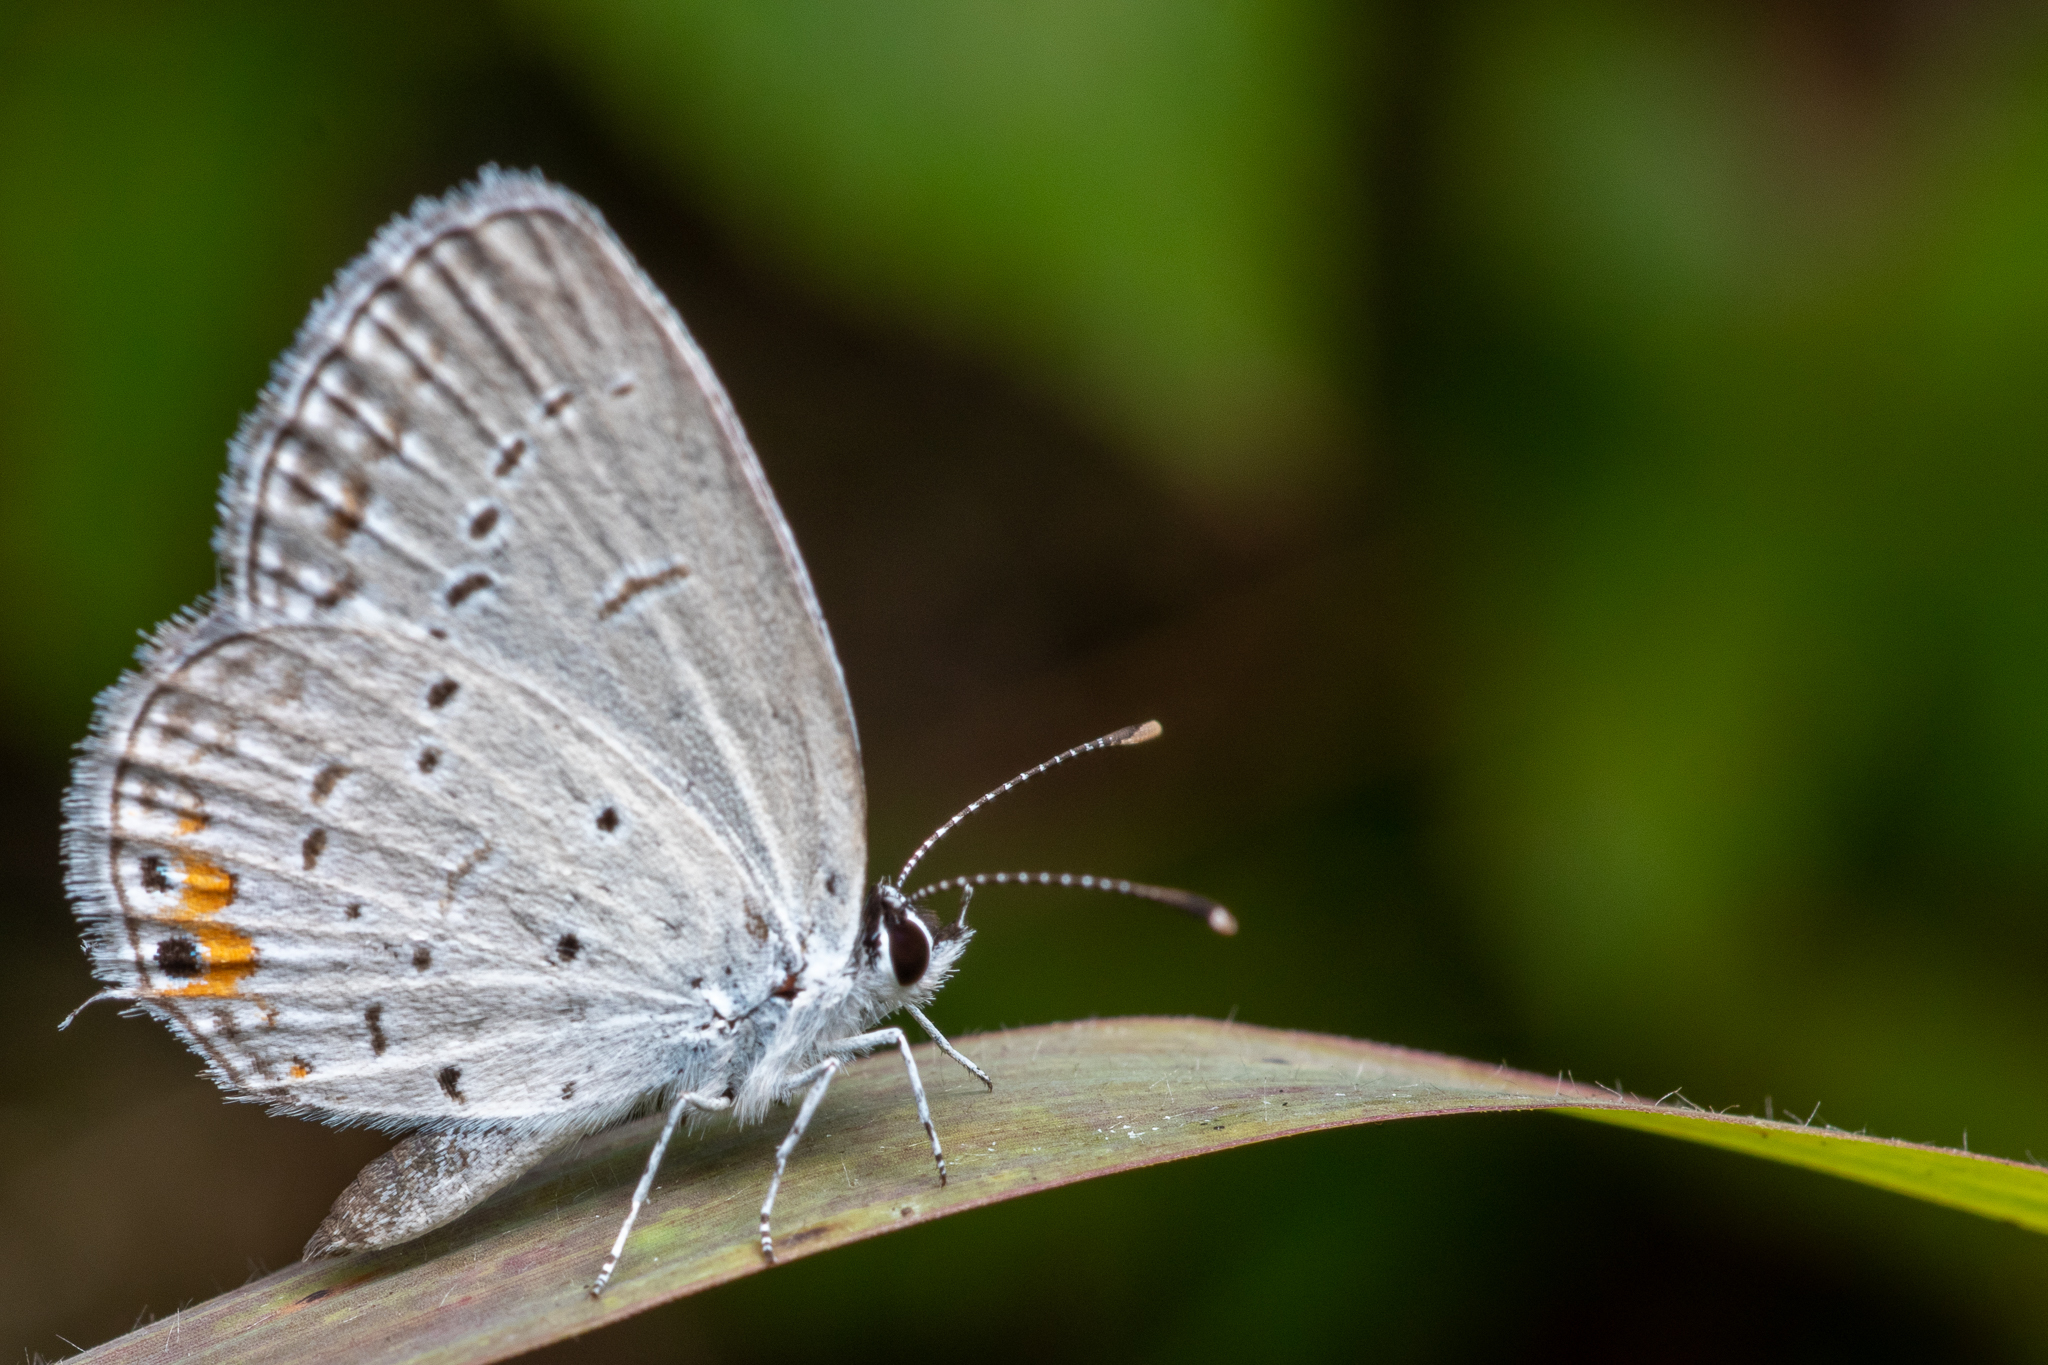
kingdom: Animalia
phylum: Arthropoda
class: Insecta
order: Lepidoptera
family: Lycaenidae
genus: Elkalyce
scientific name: Elkalyce comyntas
